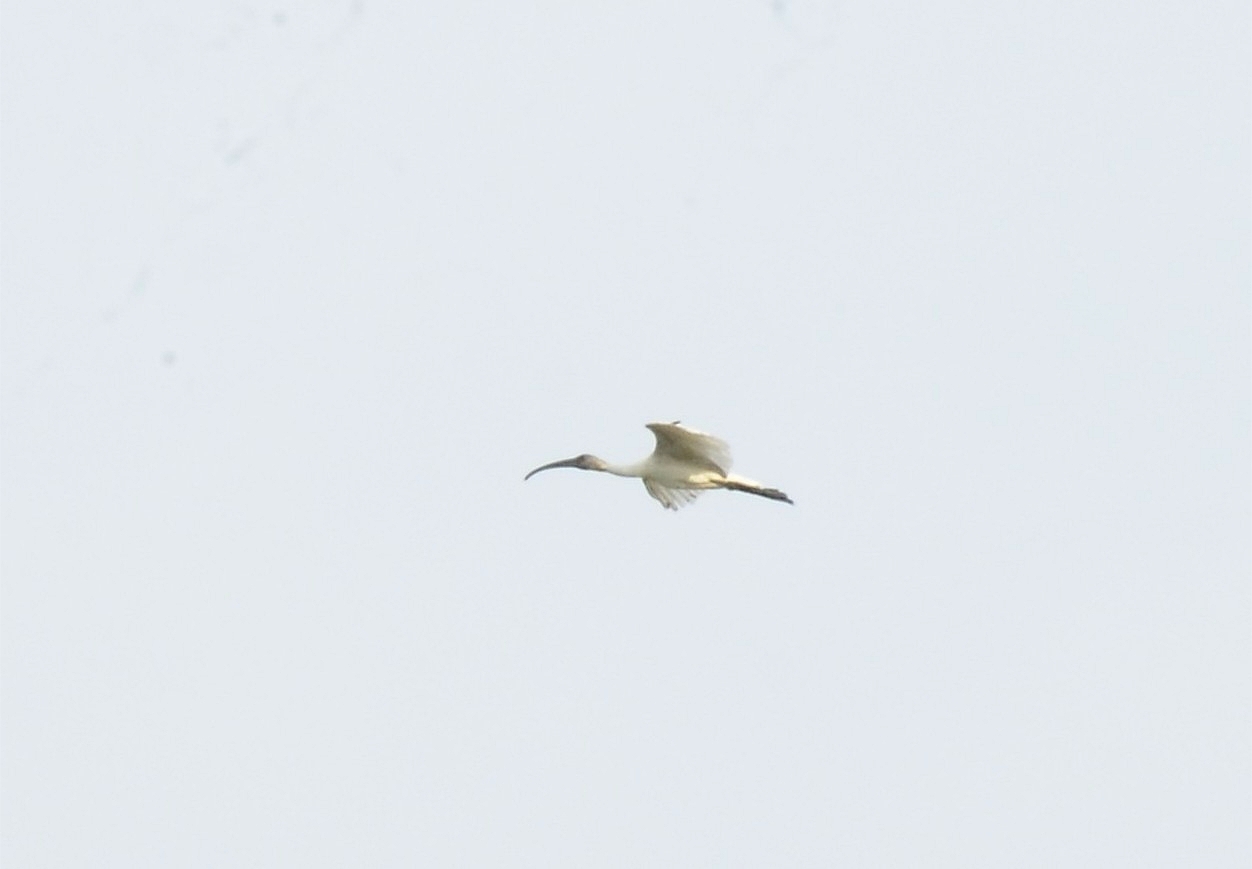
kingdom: Animalia
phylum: Chordata
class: Aves
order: Pelecaniformes
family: Threskiornithidae
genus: Threskiornis
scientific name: Threskiornis melanocephalus
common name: Black-headed ibis
